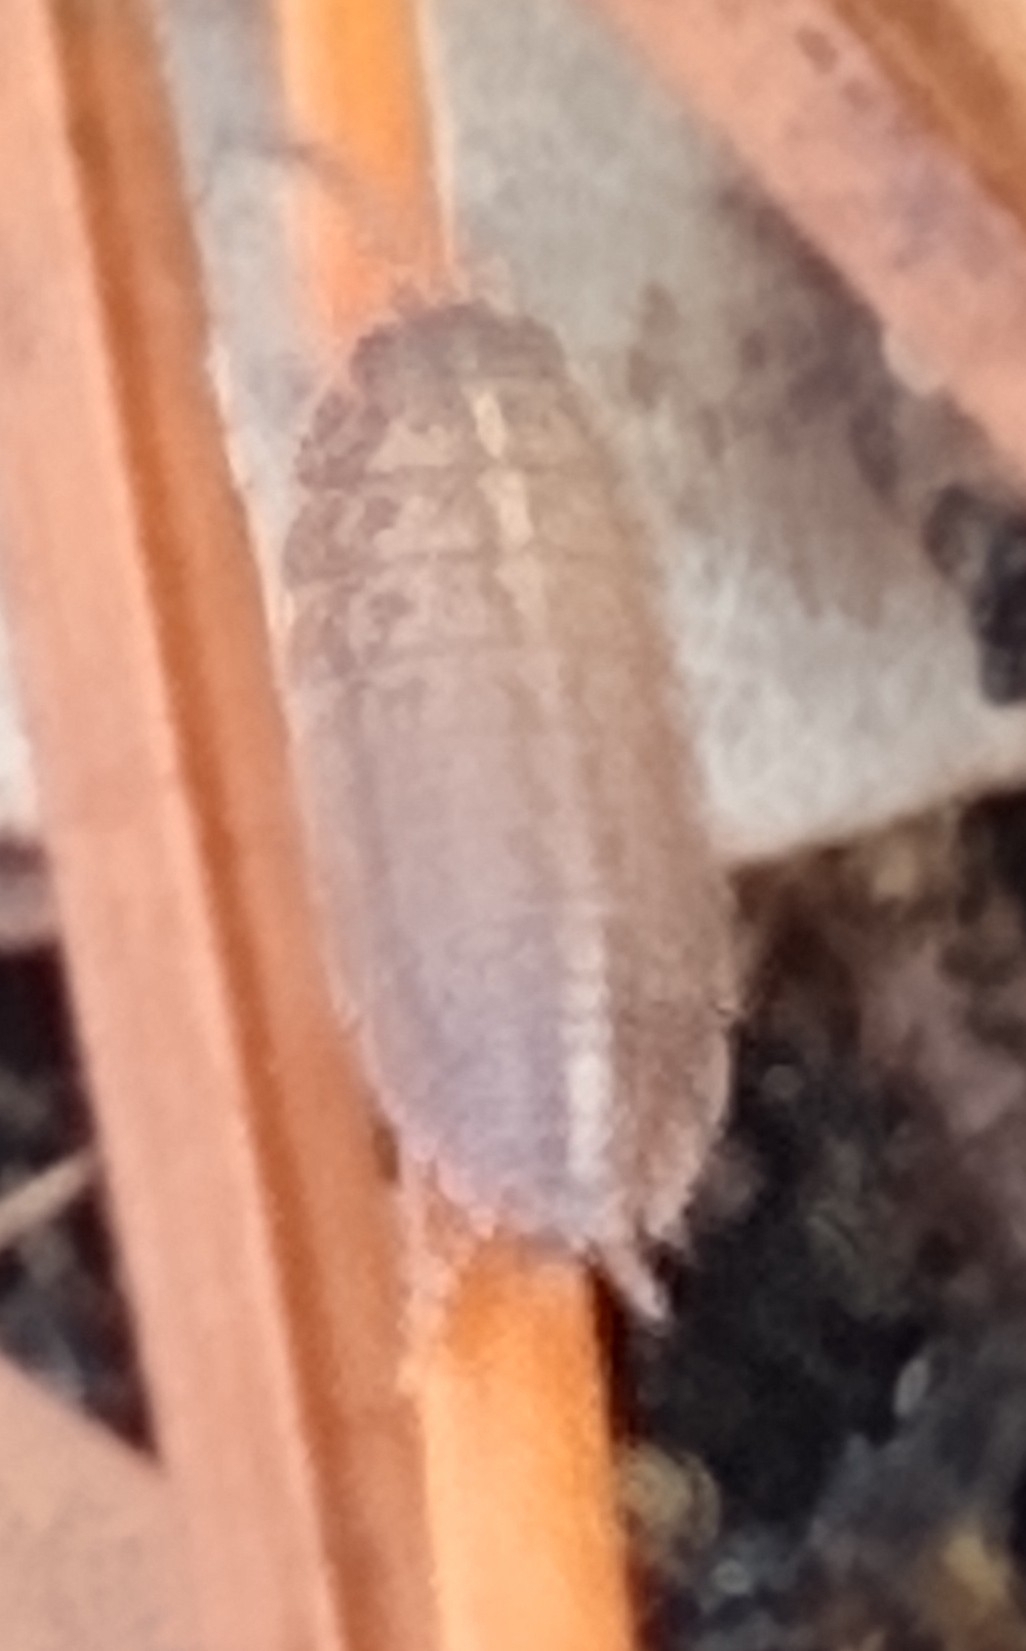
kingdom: Animalia
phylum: Arthropoda
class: Malacostraca
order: Isopoda
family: Porcellionidae
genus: Porcellionides
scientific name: Porcellionides virgatus
